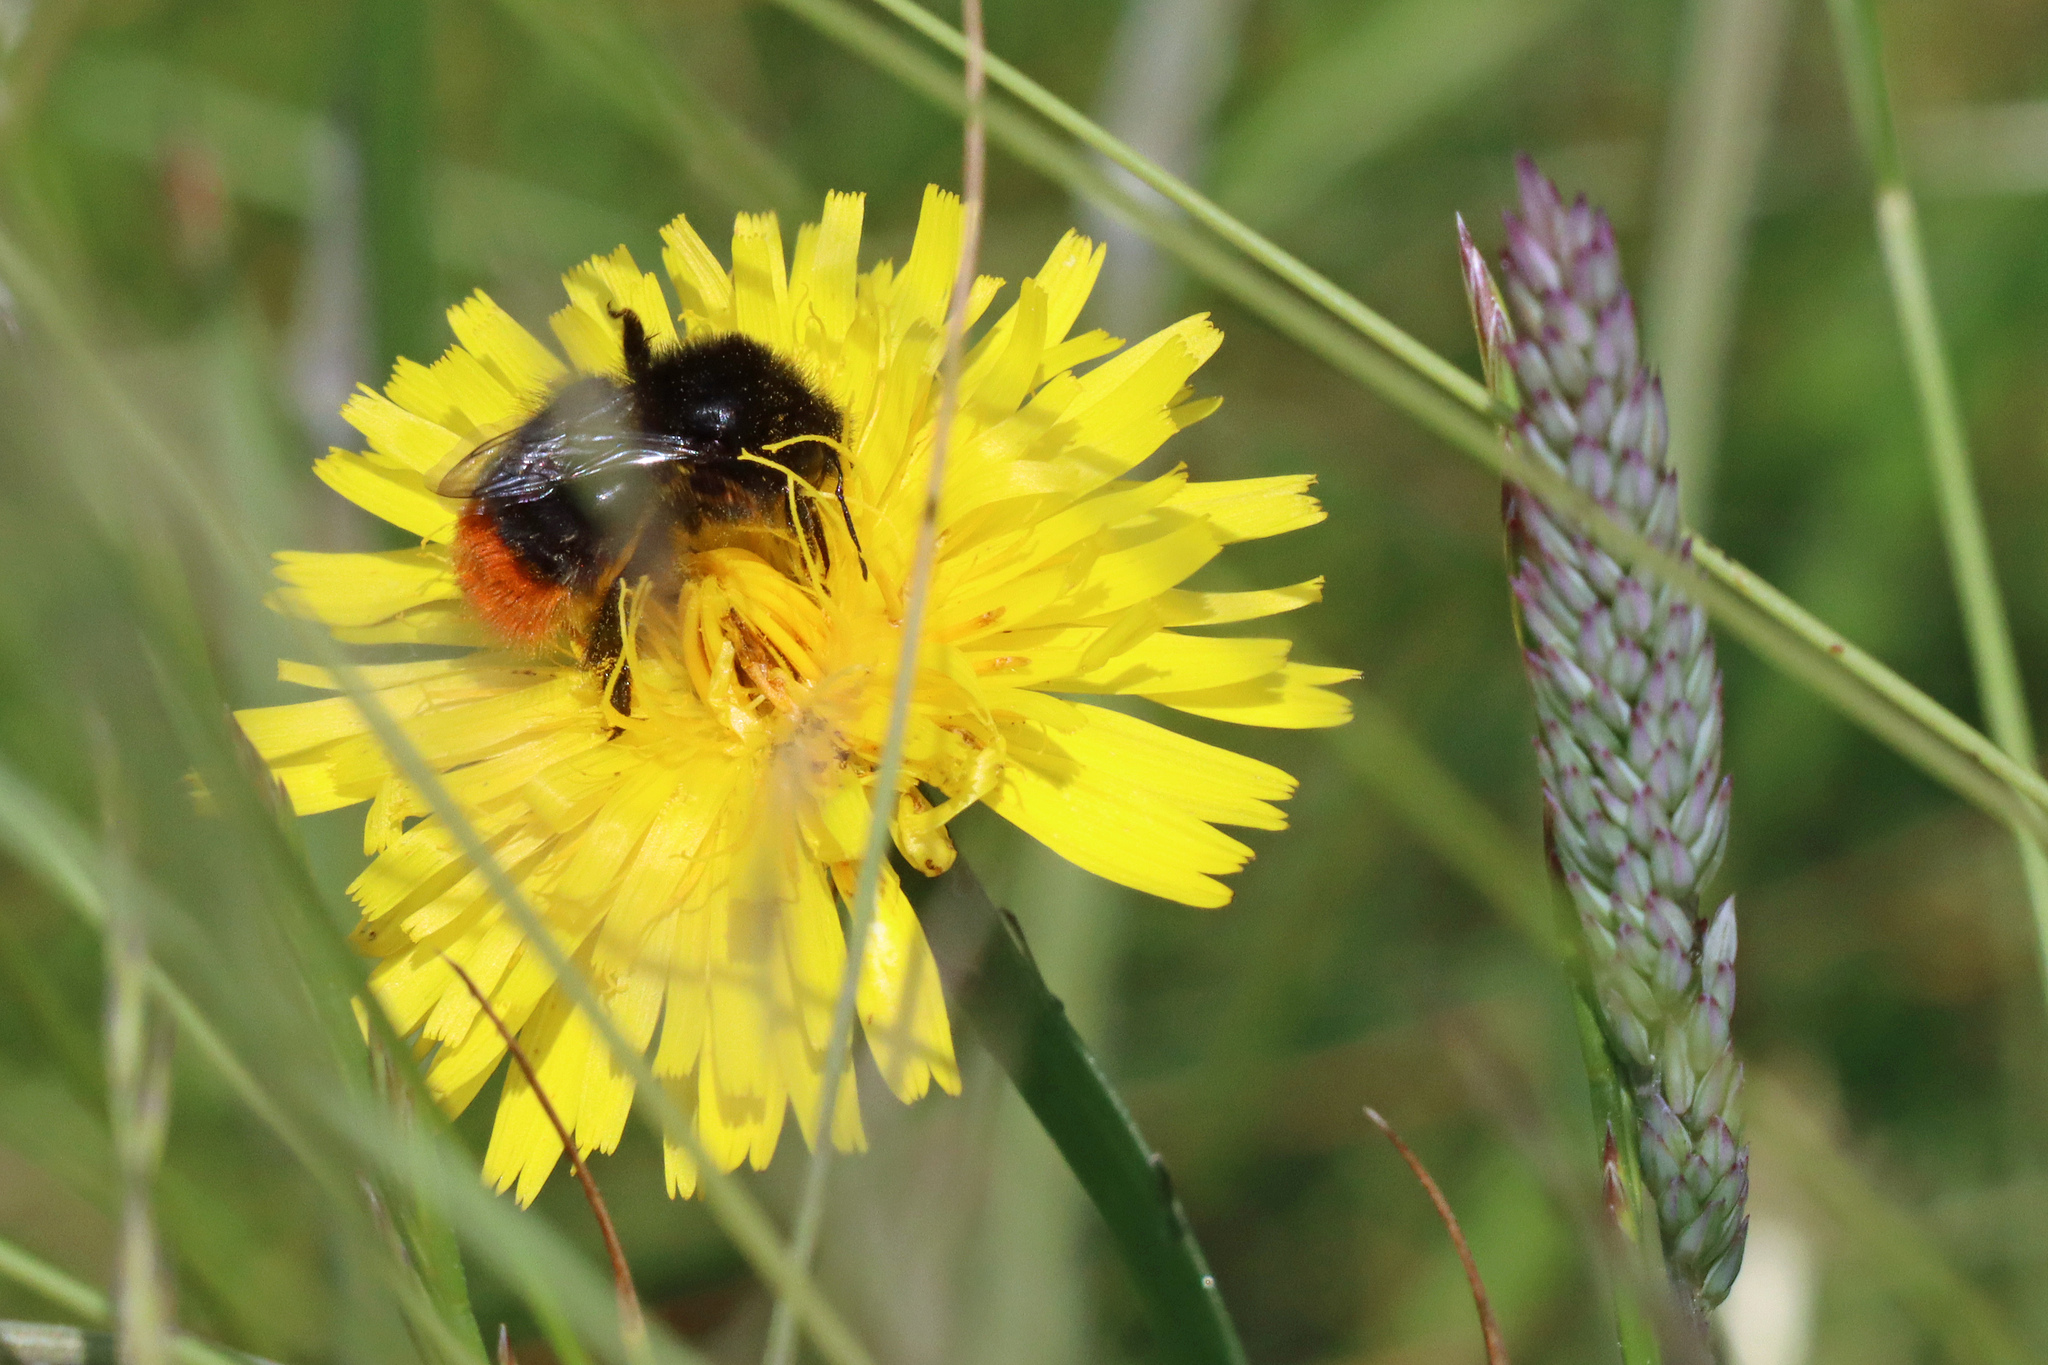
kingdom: Animalia
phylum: Arthropoda
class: Insecta
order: Hymenoptera
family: Apidae
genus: Bombus
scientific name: Bombus lapidarius
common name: Large red-tailed humble-bee
